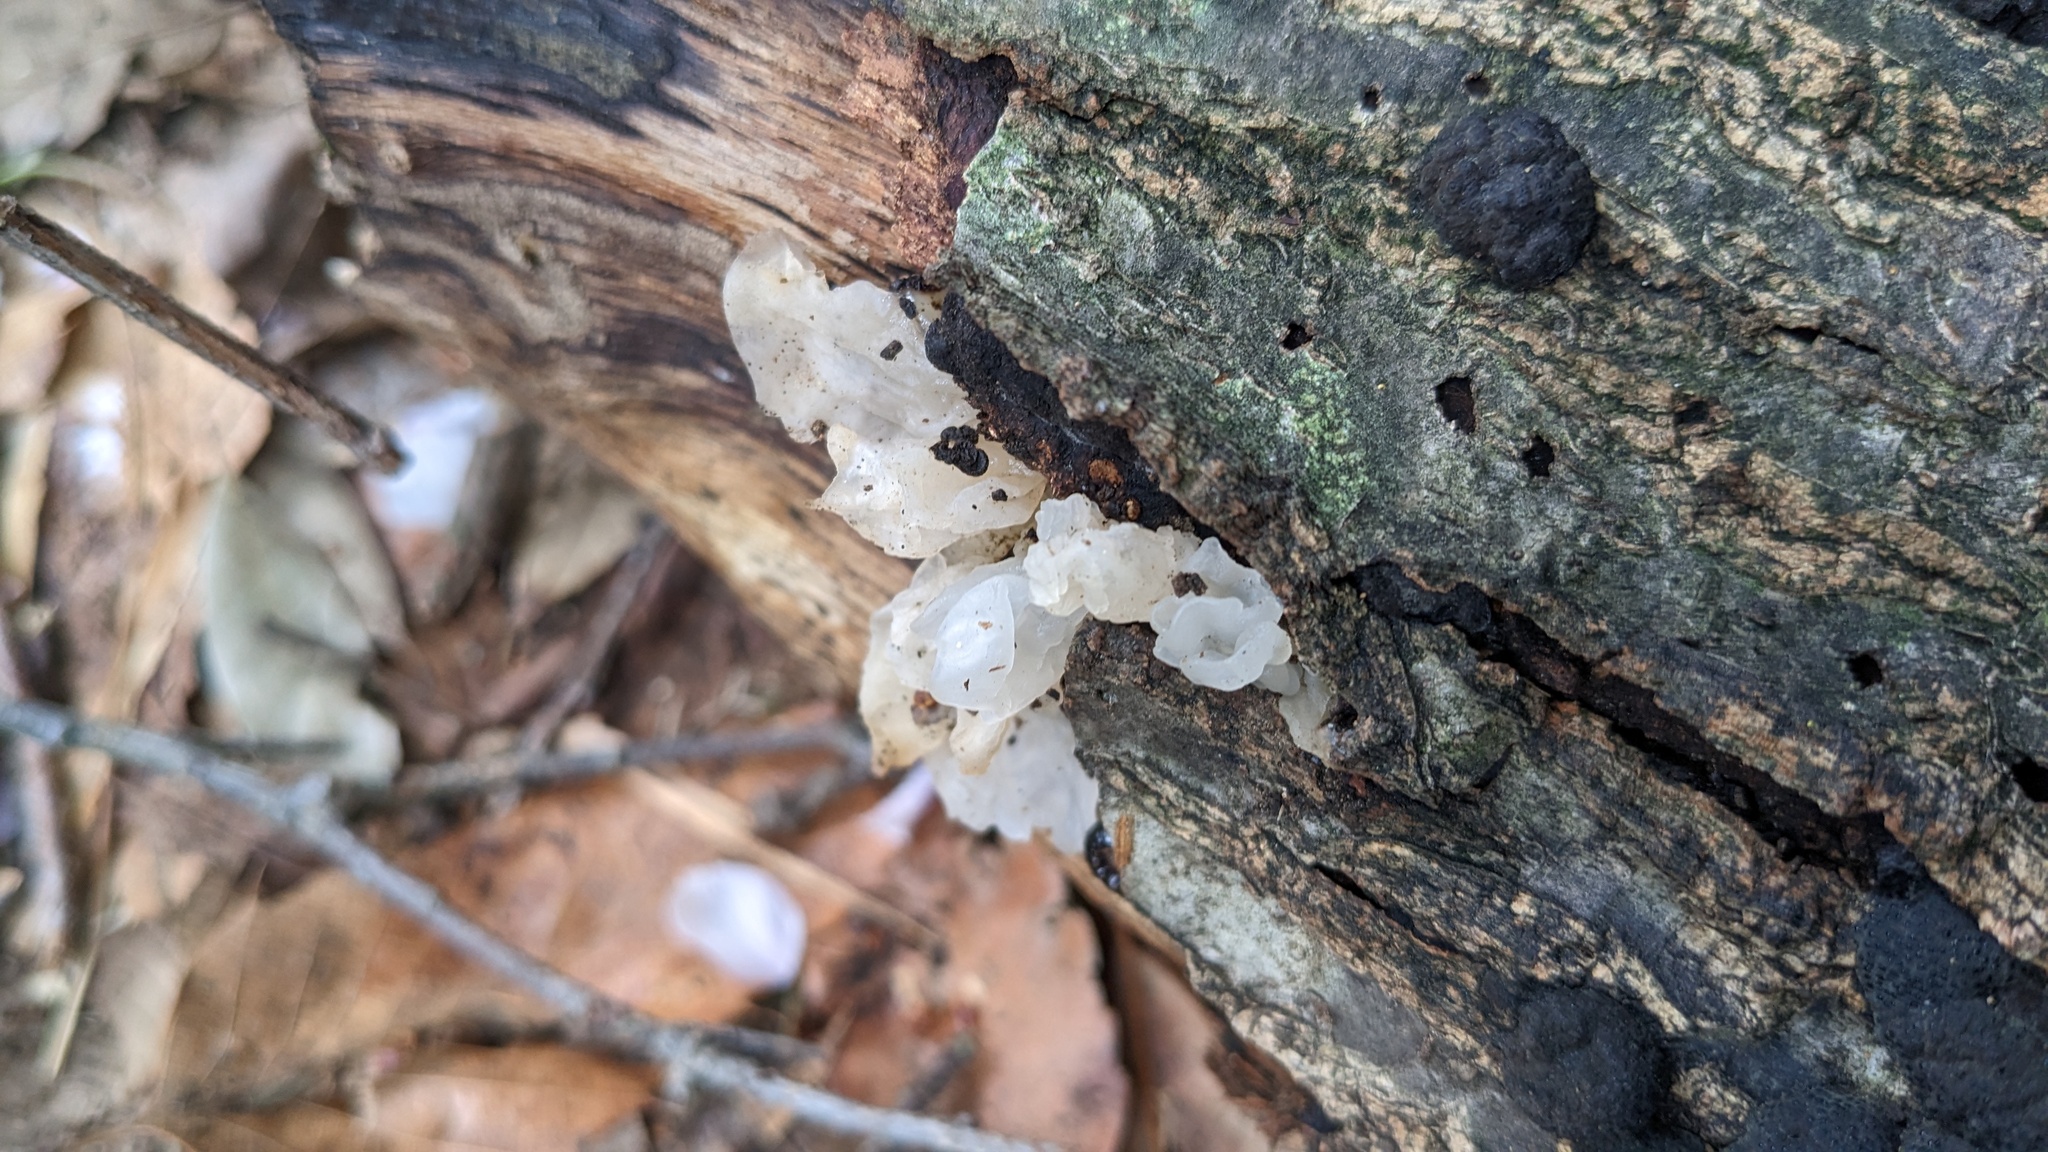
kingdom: Fungi
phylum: Basidiomycota
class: Tremellomycetes
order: Tremellales
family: Tremellaceae
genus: Tremella
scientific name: Tremella fuciformis
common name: Snow fungus
